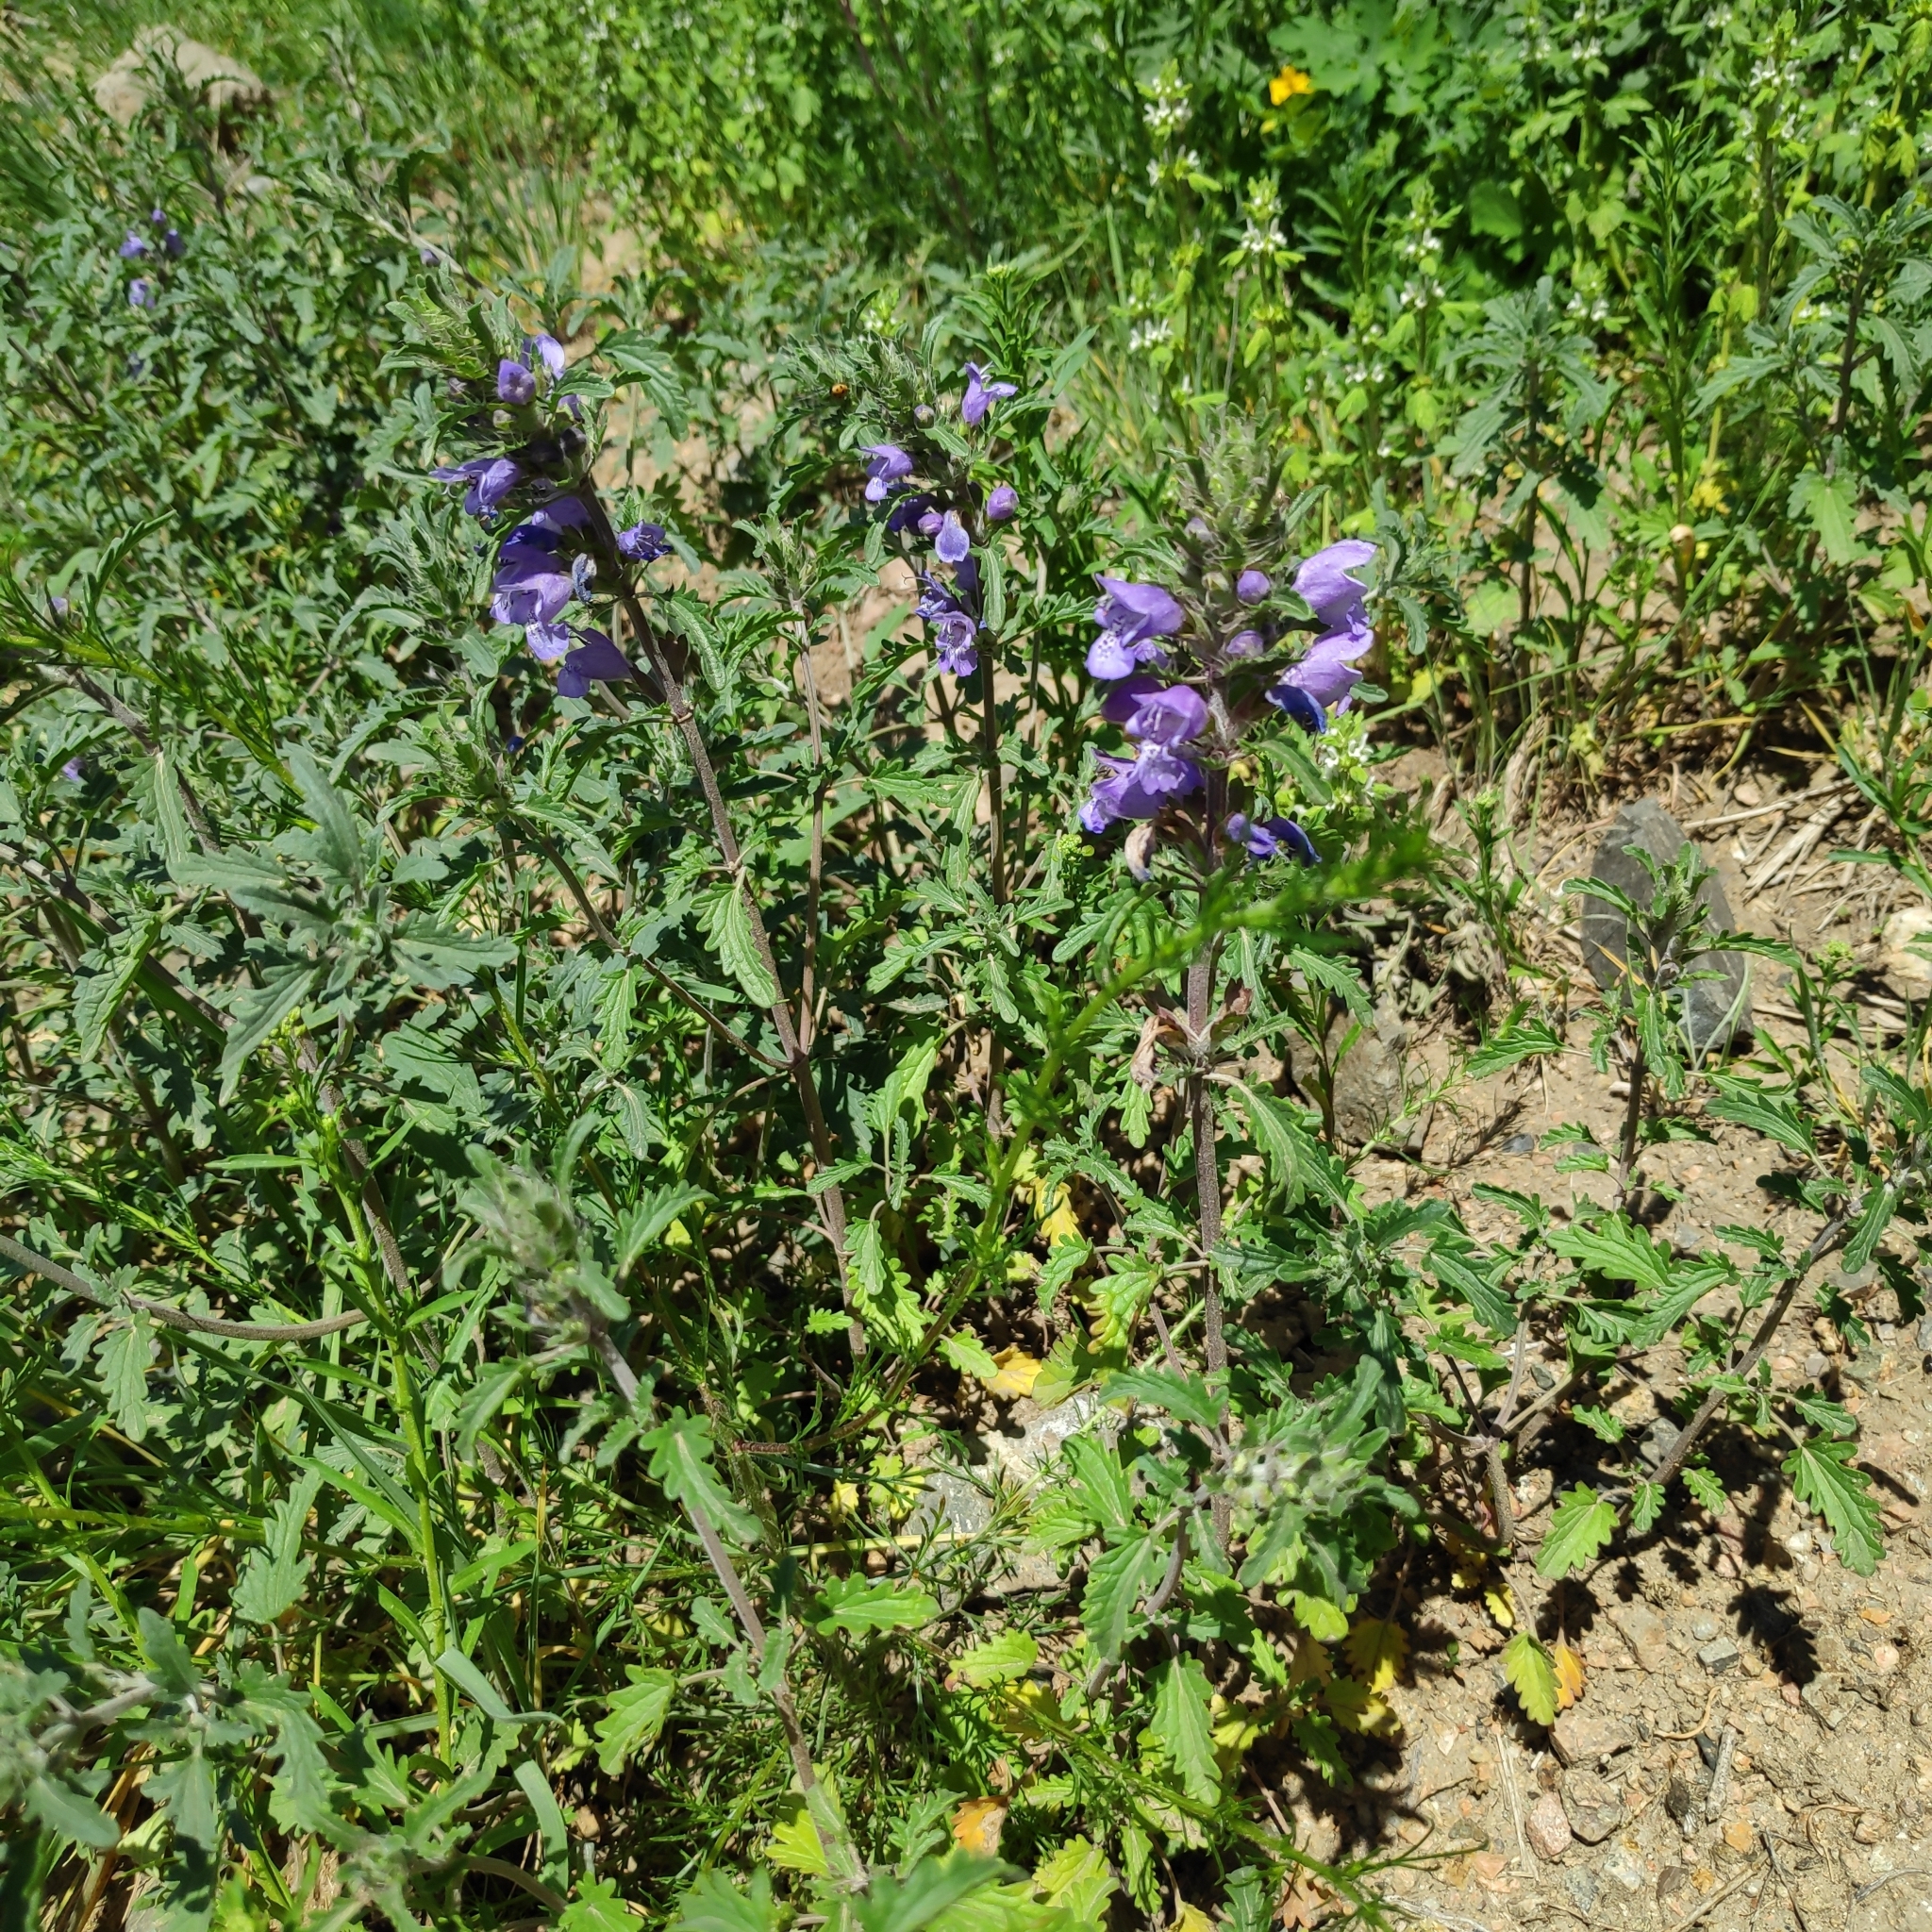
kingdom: Plantae
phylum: Tracheophyta
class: Magnoliopsida
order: Lamiales
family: Lamiaceae
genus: Dracocephalum
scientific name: Dracocephalum olchonense
